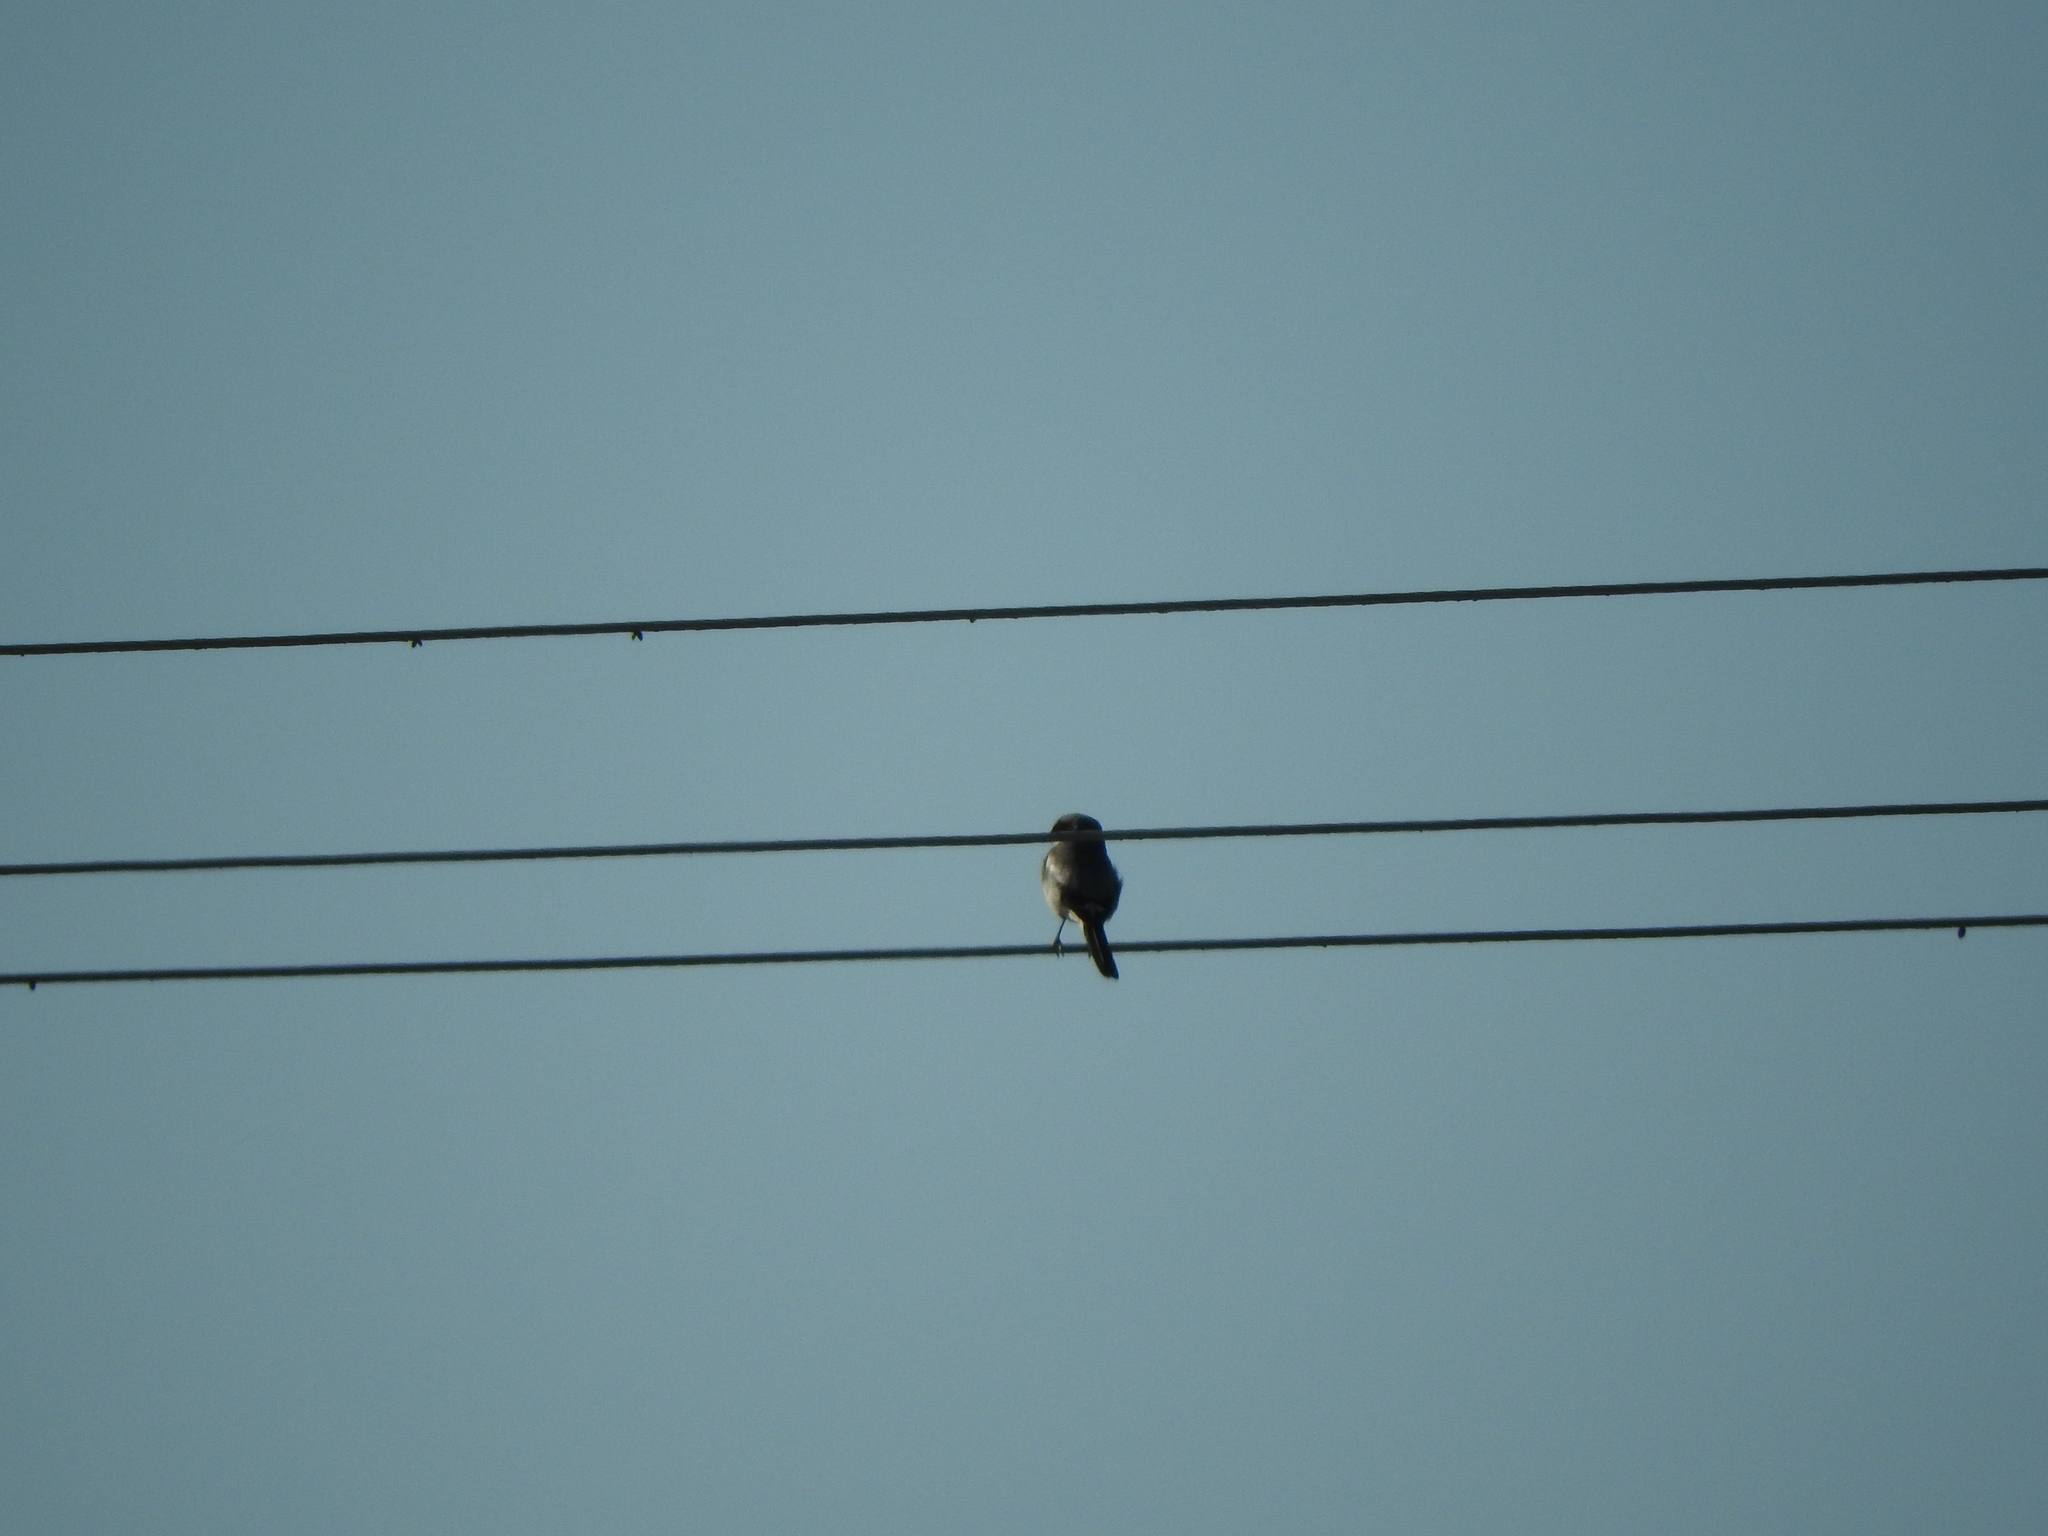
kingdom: Animalia
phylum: Chordata
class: Aves
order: Passeriformes
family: Laniidae
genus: Lanius
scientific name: Lanius ludovicianus
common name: Loggerhead shrike
